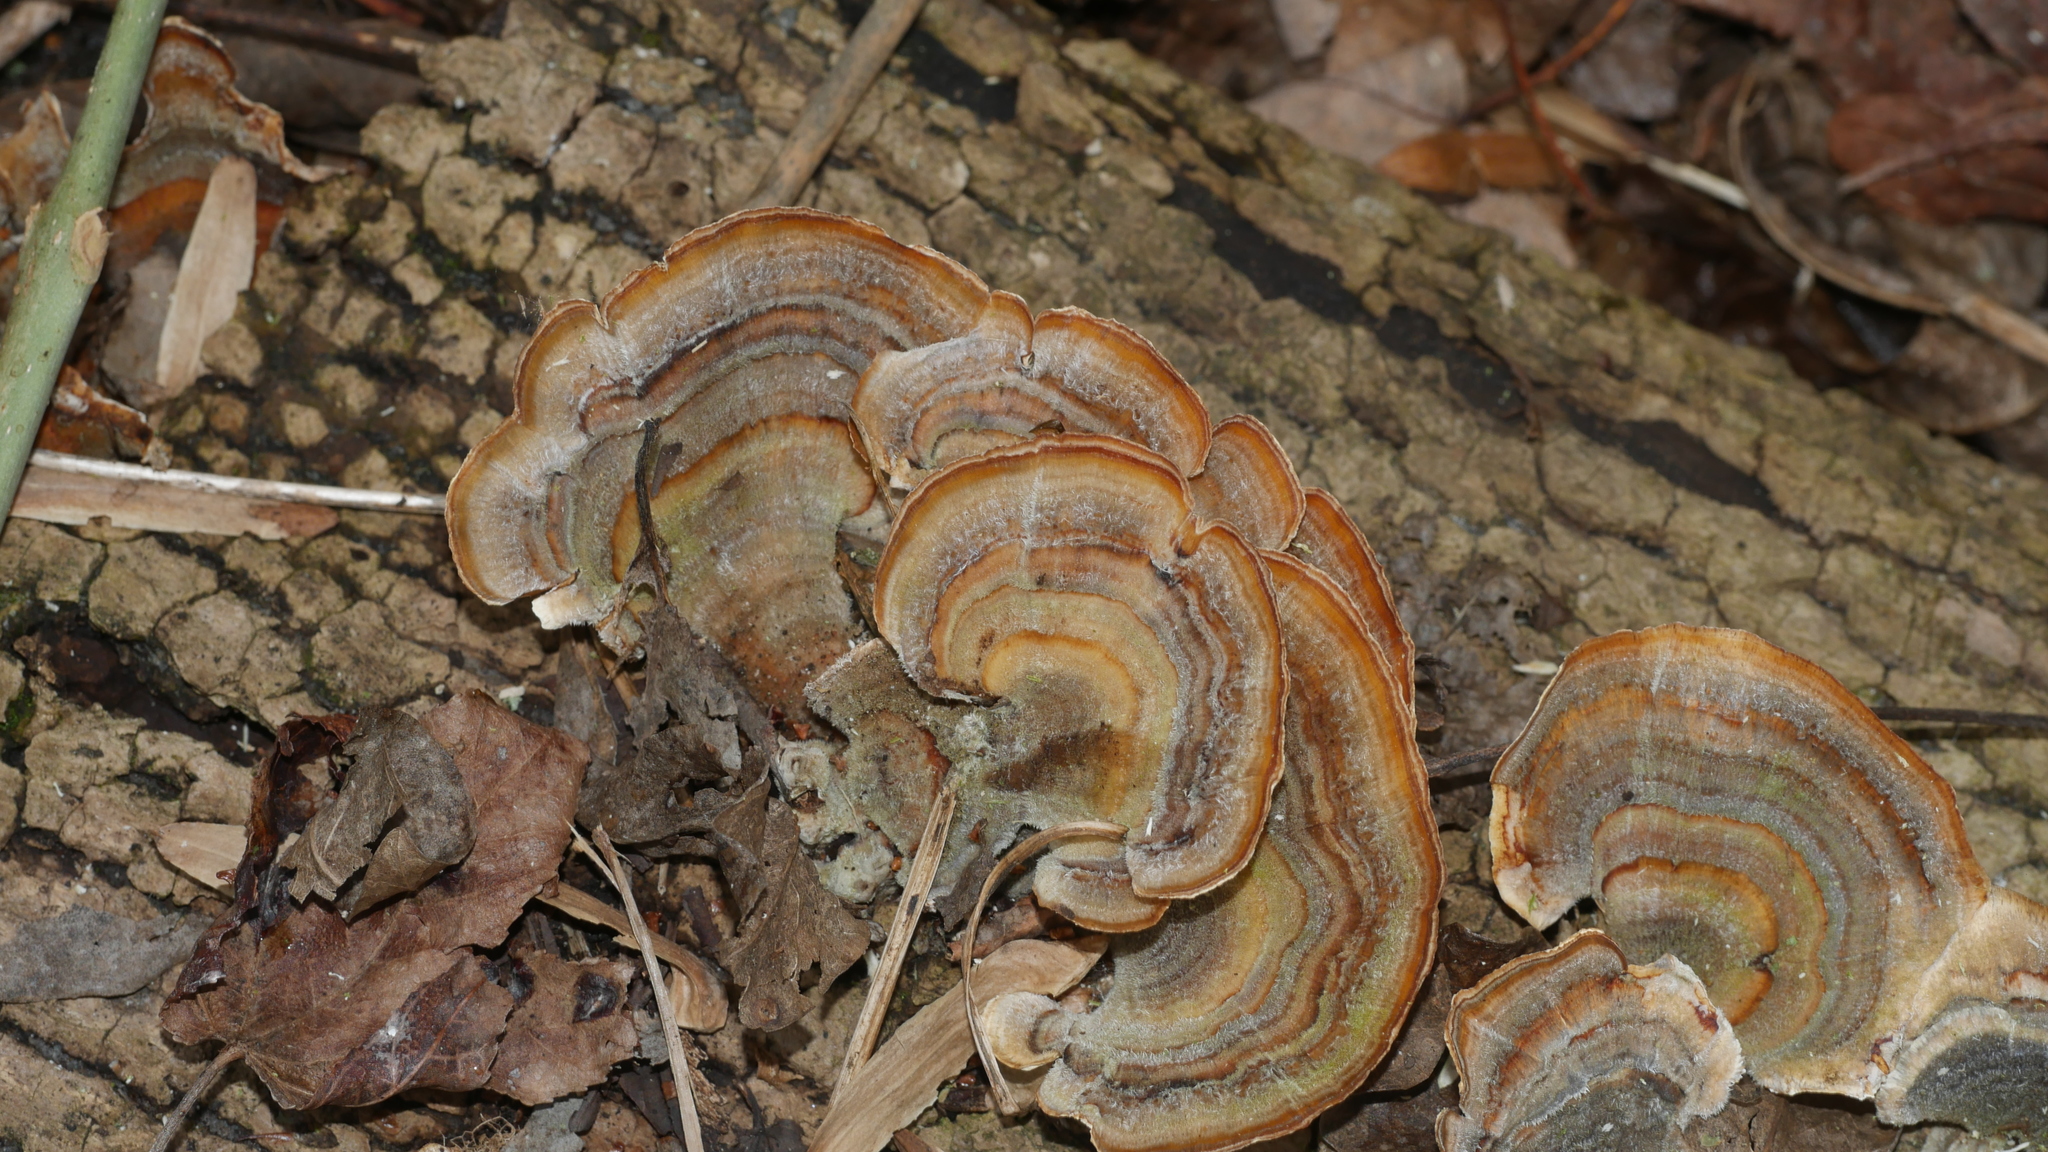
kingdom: Fungi
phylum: Basidiomycota
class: Agaricomycetes
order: Polyporales
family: Polyporaceae
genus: Trametes
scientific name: Trametes versicolor
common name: Turkeytail
